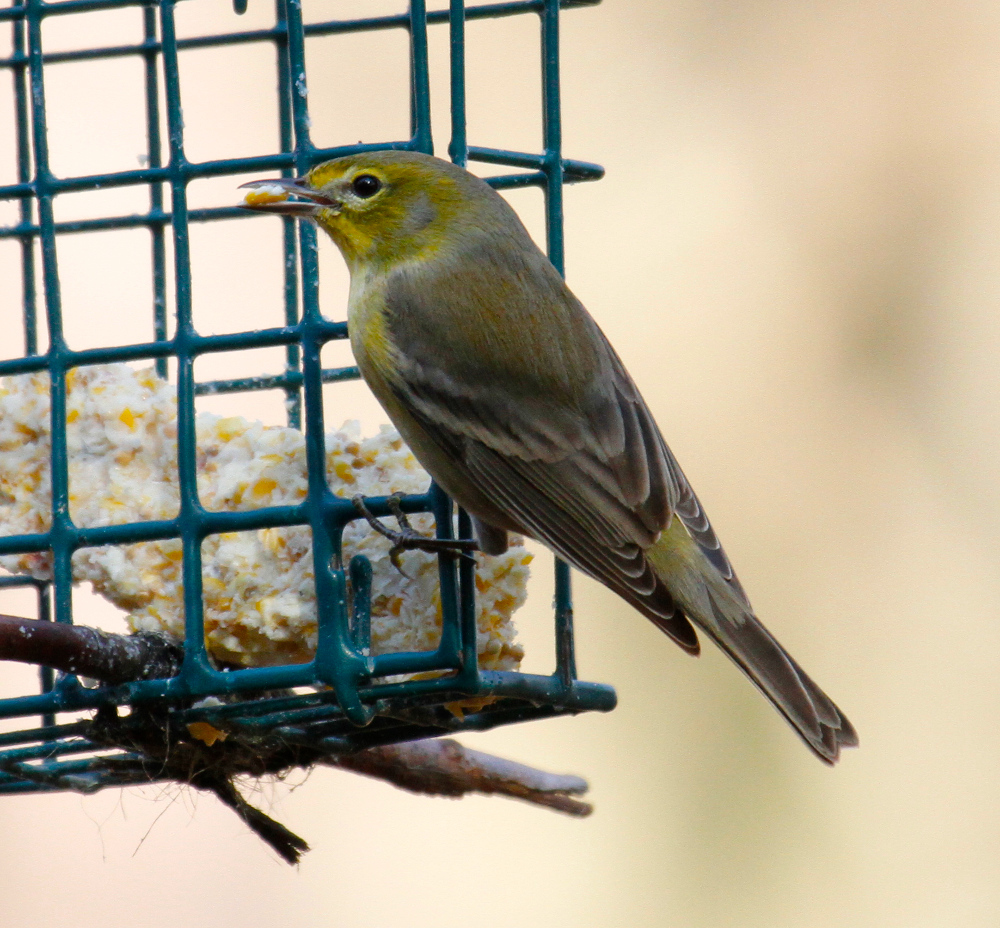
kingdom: Animalia
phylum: Chordata
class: Aves
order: Passeriformes
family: Parulidae
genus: Setophaga
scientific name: Setophaga pinus
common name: Pine warbler
